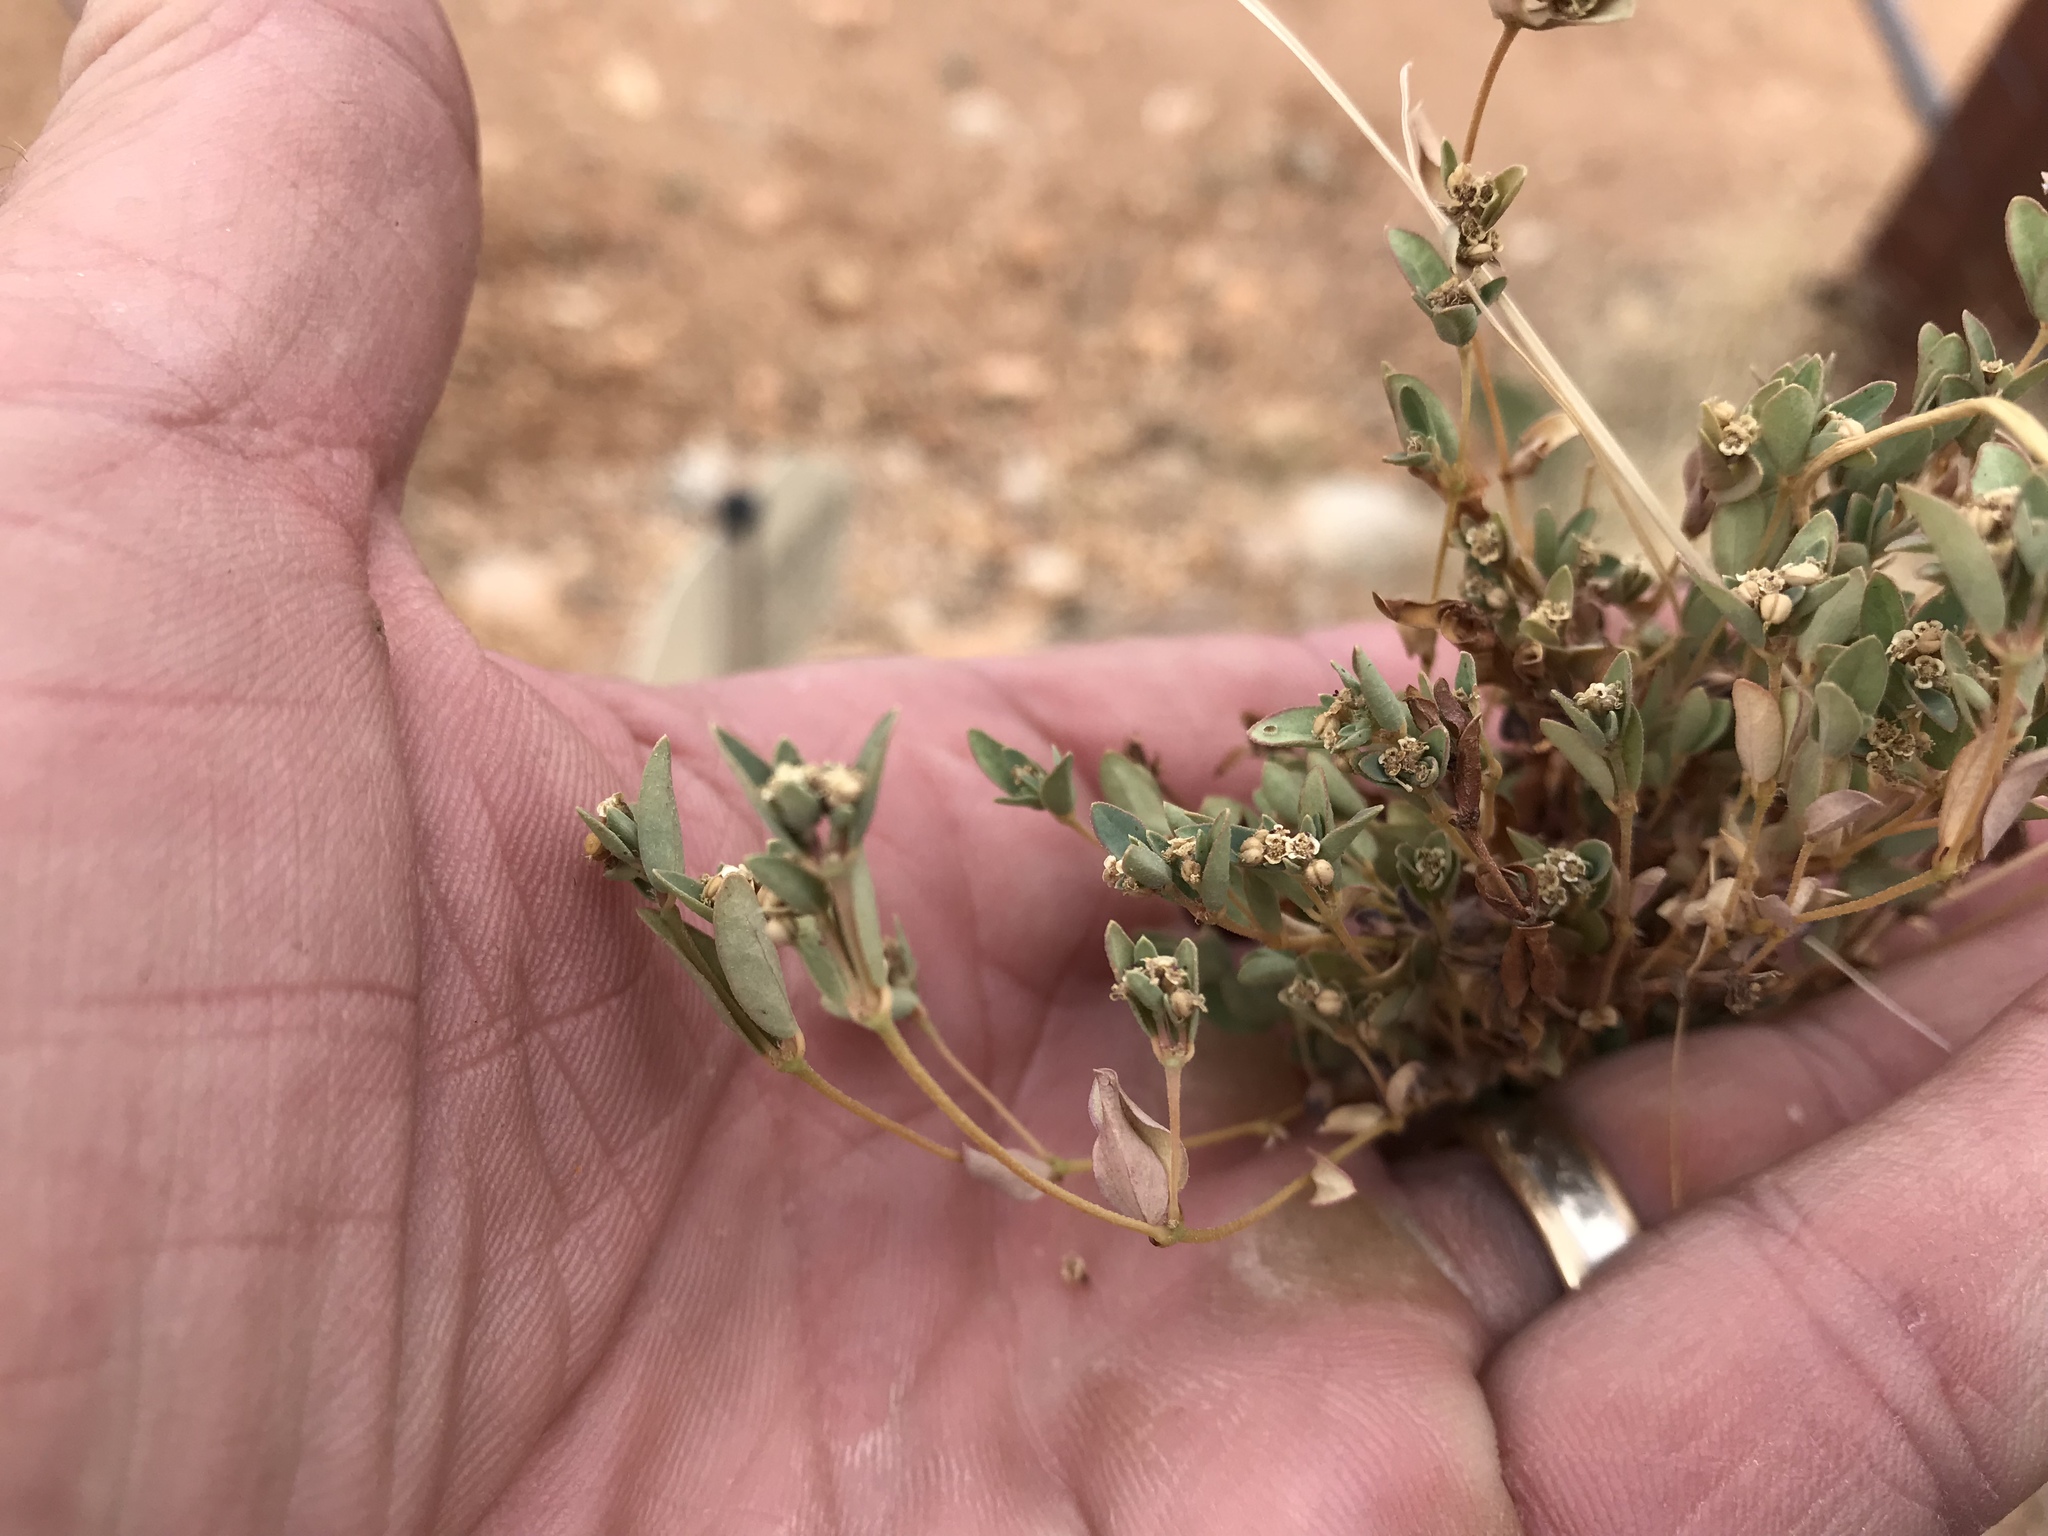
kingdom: Plantae
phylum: Tracheophyta
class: Magnoliopsida
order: Malpighiales
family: Euphorbiaceae
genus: Euphorbia
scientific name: Euphorbia capitellata
